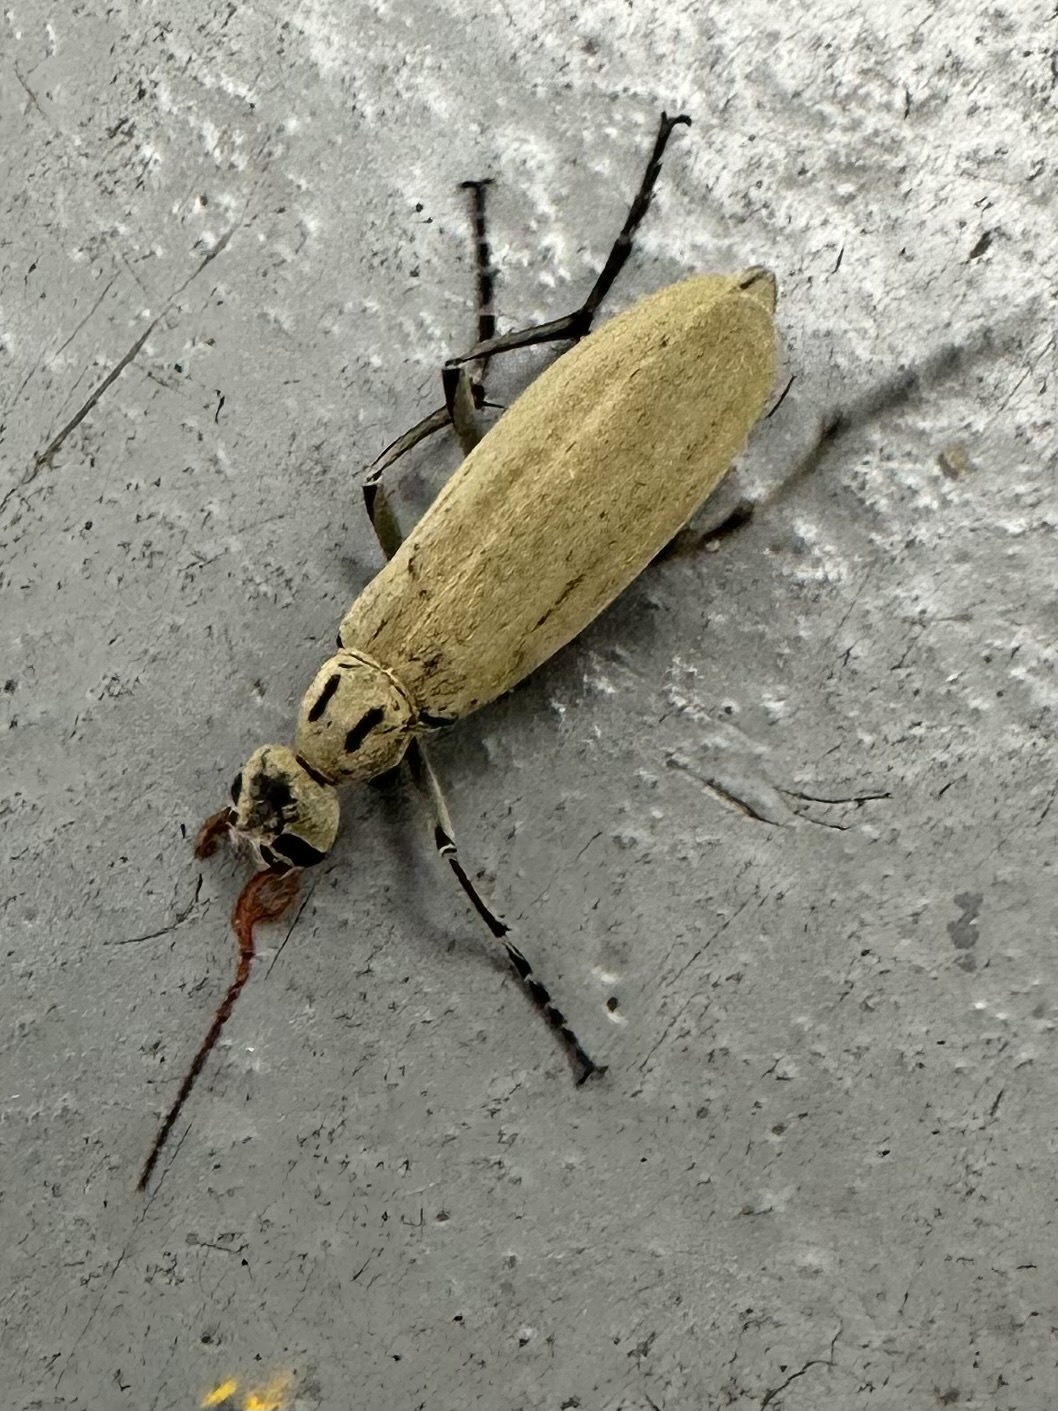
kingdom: Animalia
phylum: Arthropoda
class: Insecta
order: Coleoptera
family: Meloidae
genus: Epicauta
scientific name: Epicauta albida
